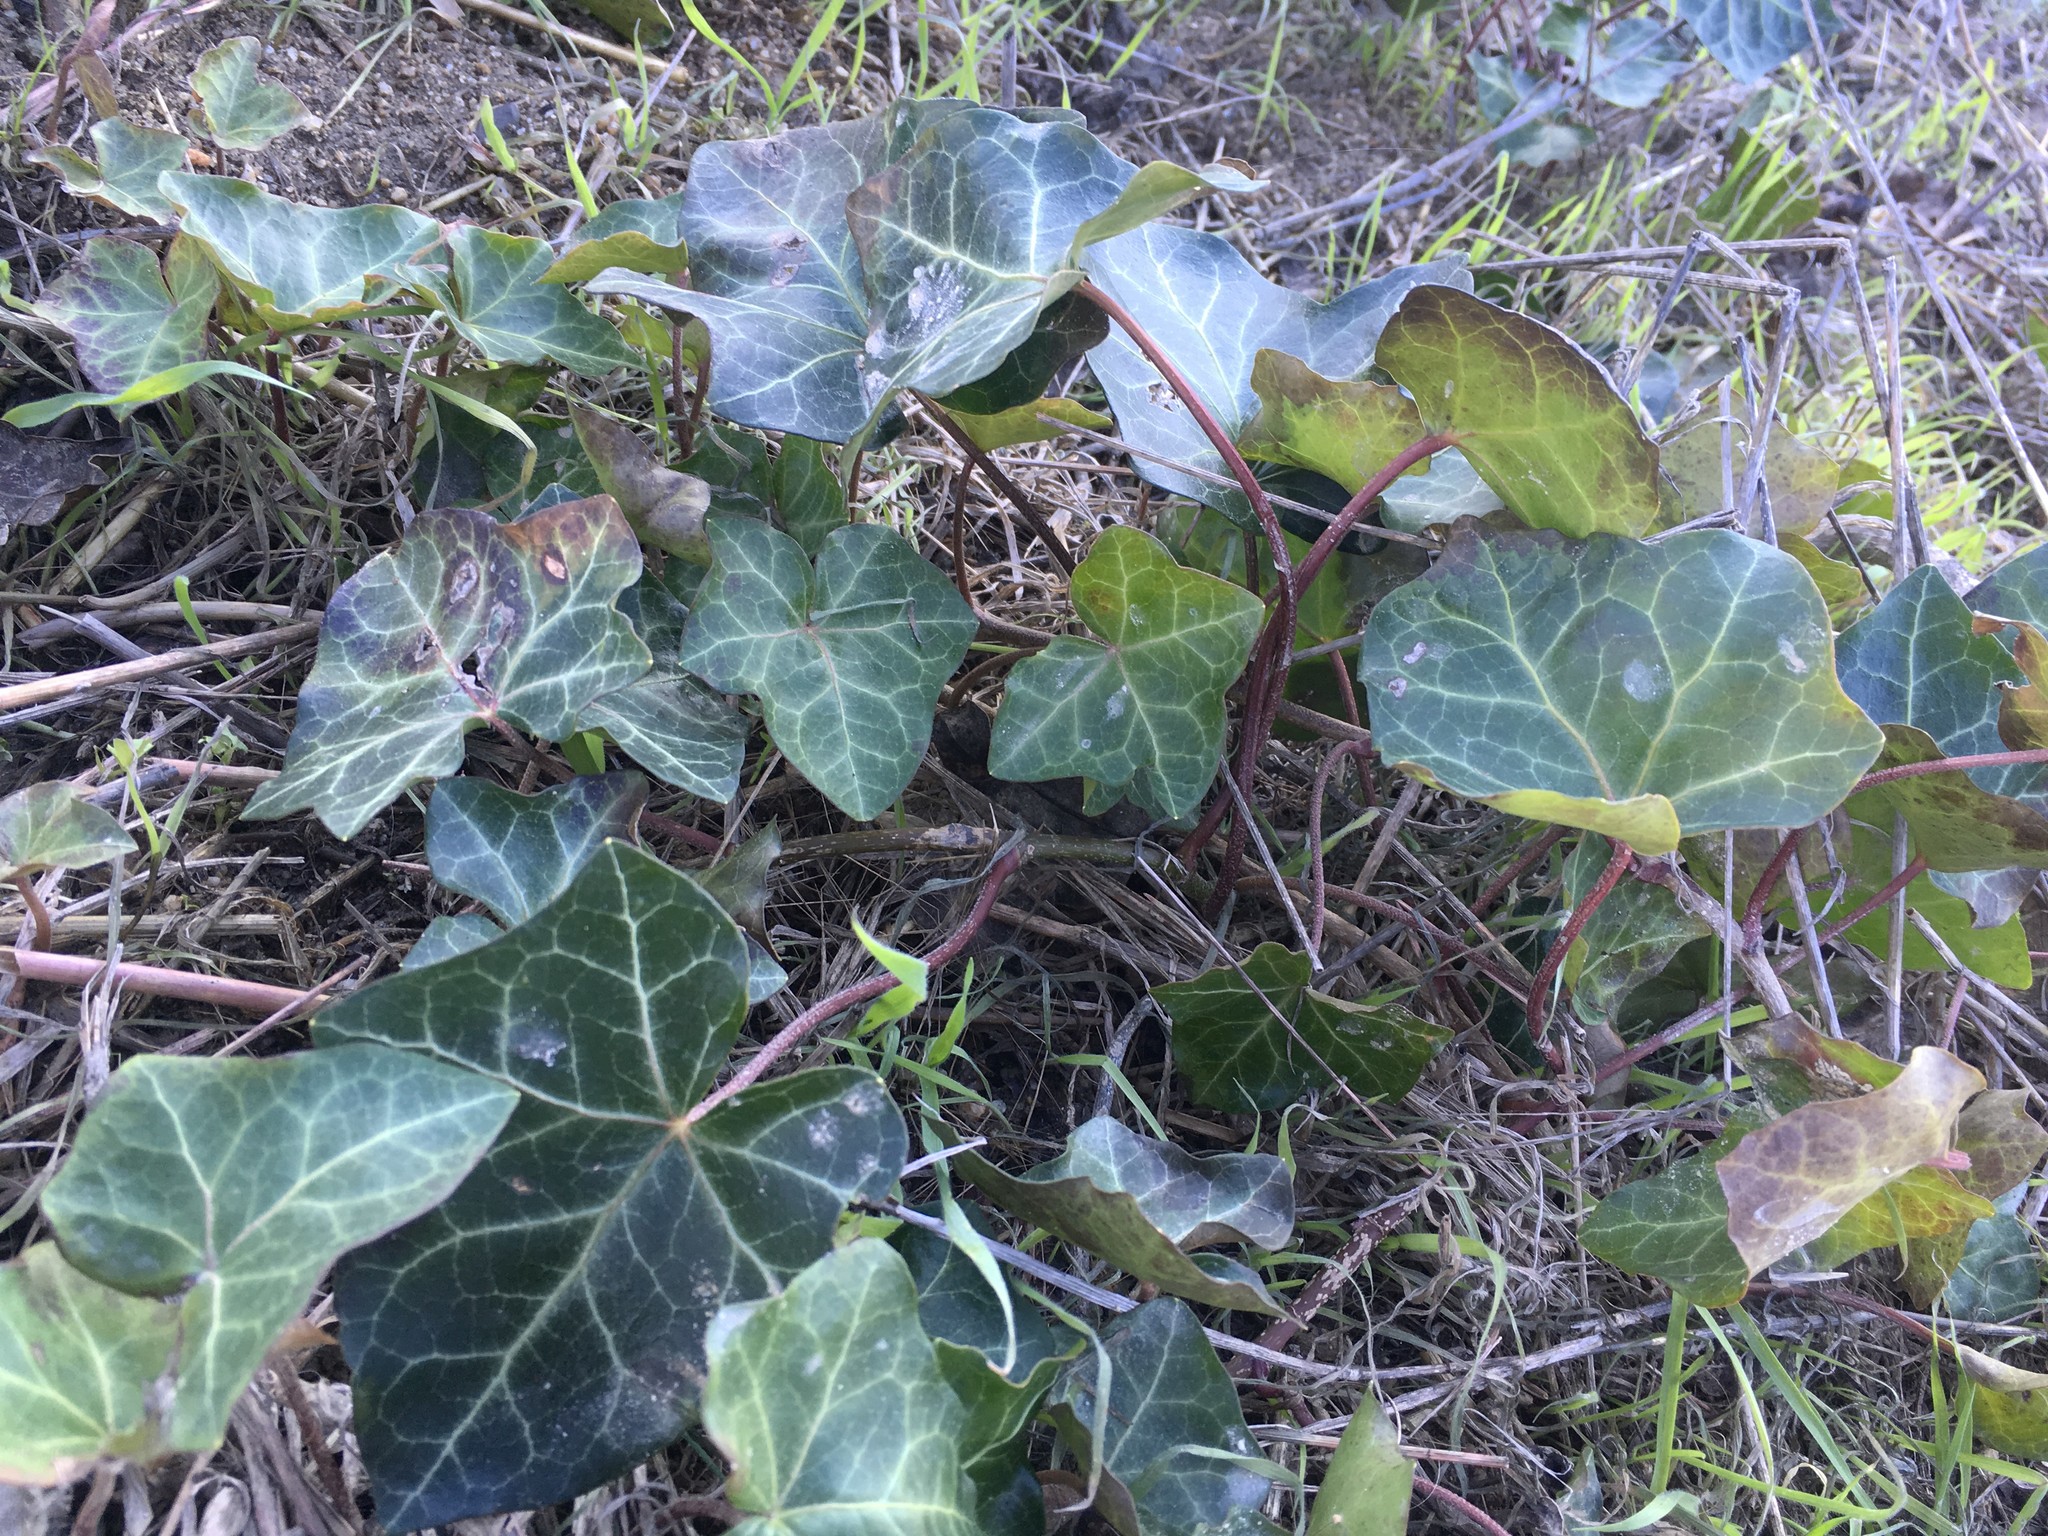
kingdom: Plantae
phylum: Tracheophyta
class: Magnoliopsida
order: Apiales
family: Araliaceae
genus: Hedera
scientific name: Hedera helix
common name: Ivy
